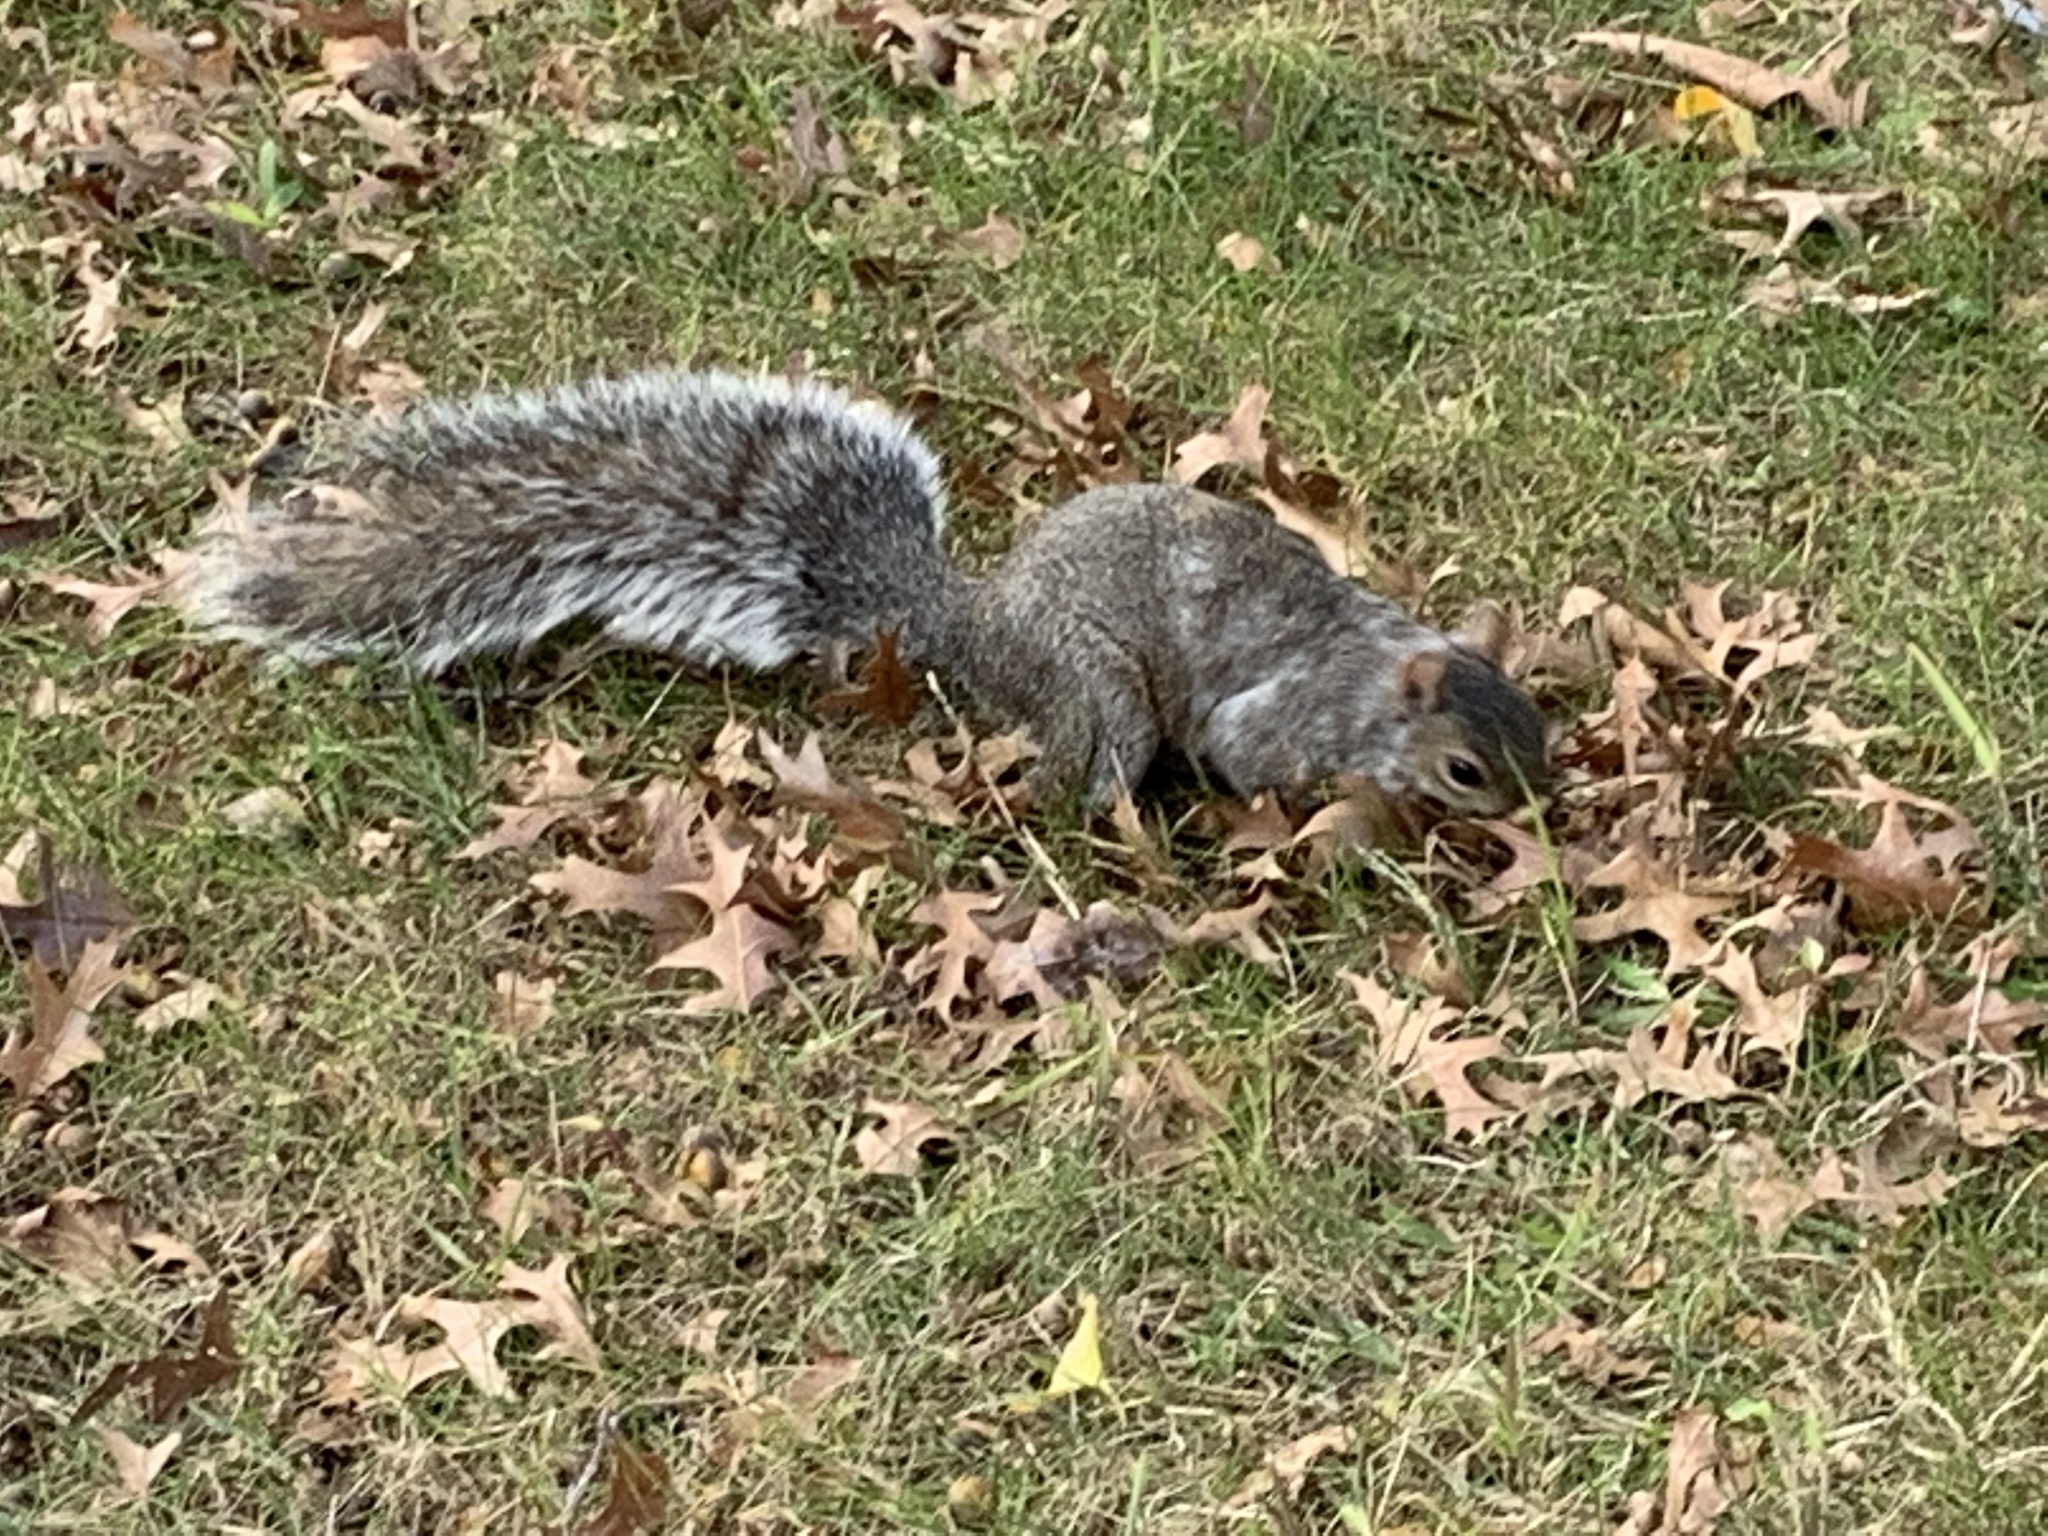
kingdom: Animalia
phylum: Chordata
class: Mammalia
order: Rodentia
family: Sciuridae
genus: Sciurus
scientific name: Sciurus carolinensis
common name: Eastern gray squirrel
